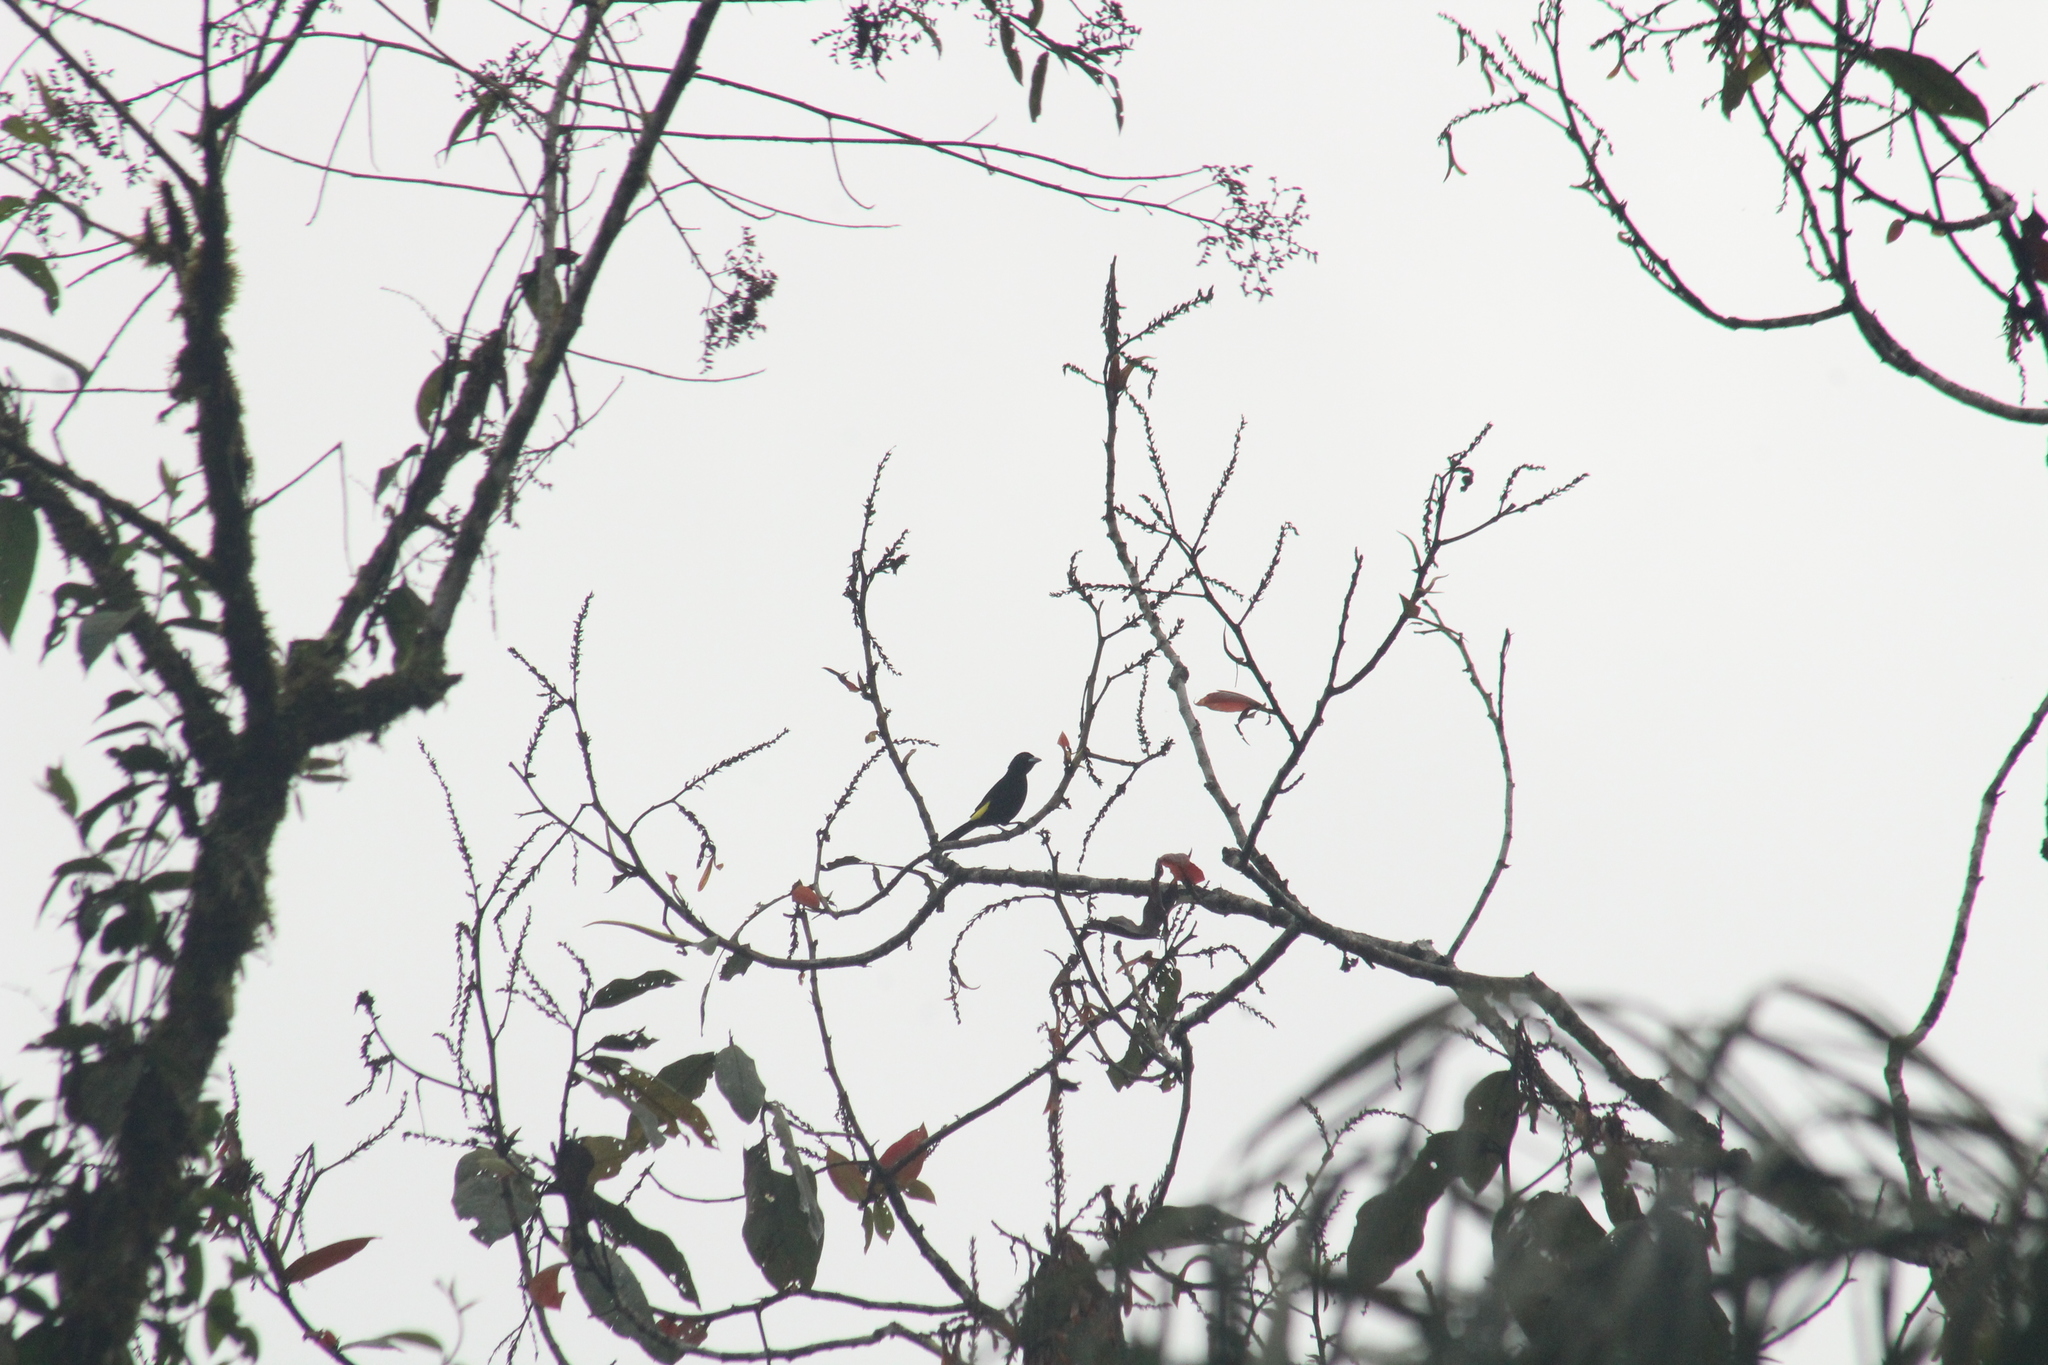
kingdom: Animalia
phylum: Chordata
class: Aves
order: Passeriformes
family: Thraupidae
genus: Ramphocelus
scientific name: Ramphocelus icteronotus
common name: Lemon-rumped tanager
